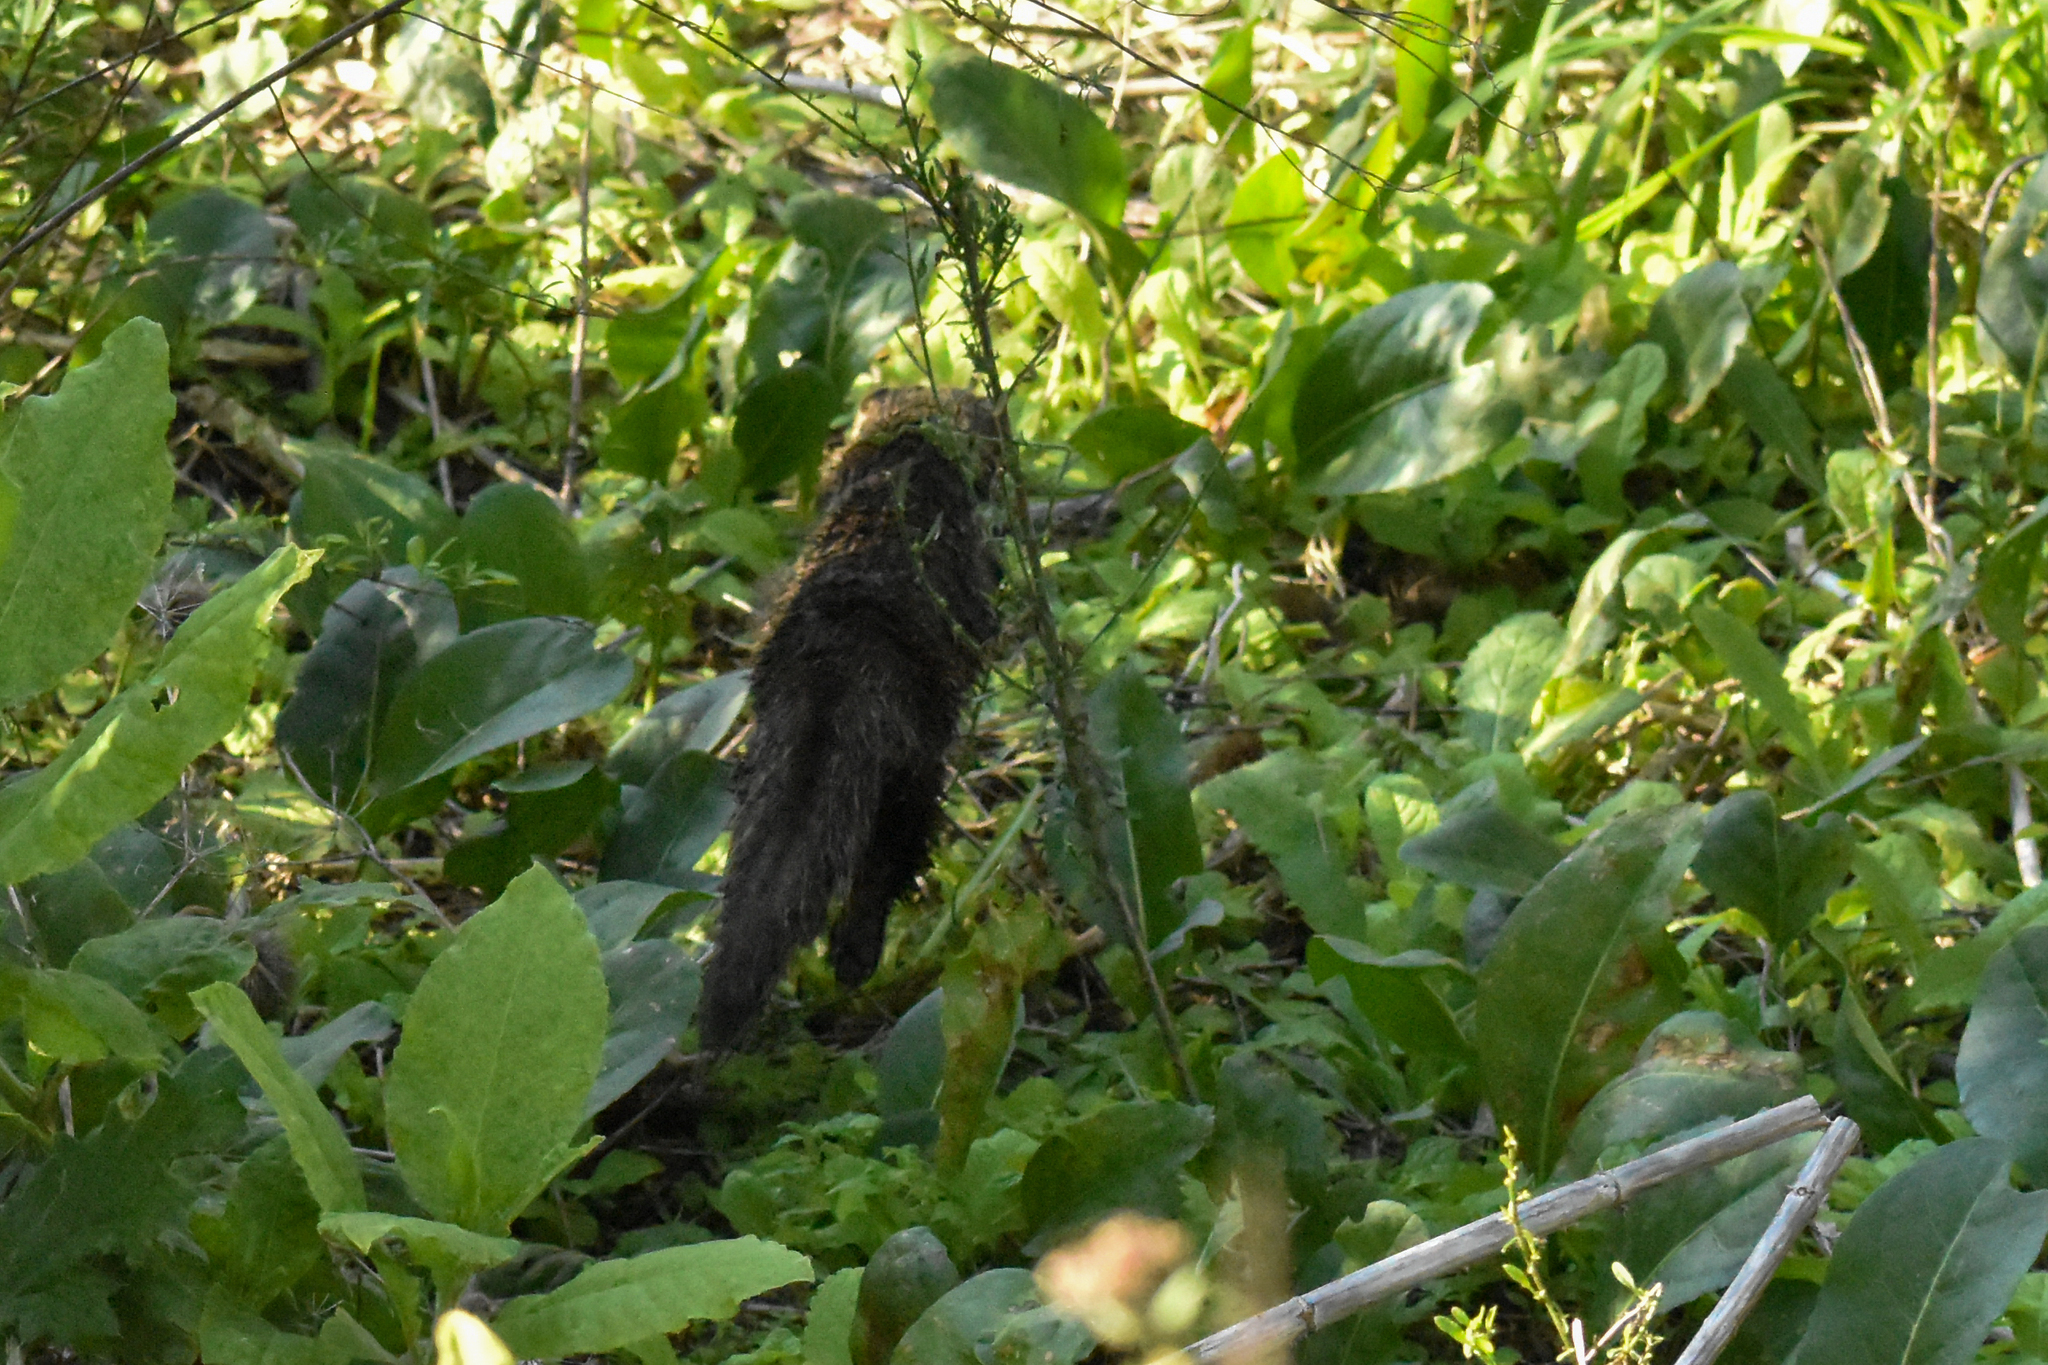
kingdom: Animalia
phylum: Chordata
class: Mammalia
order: Carnivora
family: Mustelidae
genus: Galictis
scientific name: Galictis cuja
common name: Lesser grison
